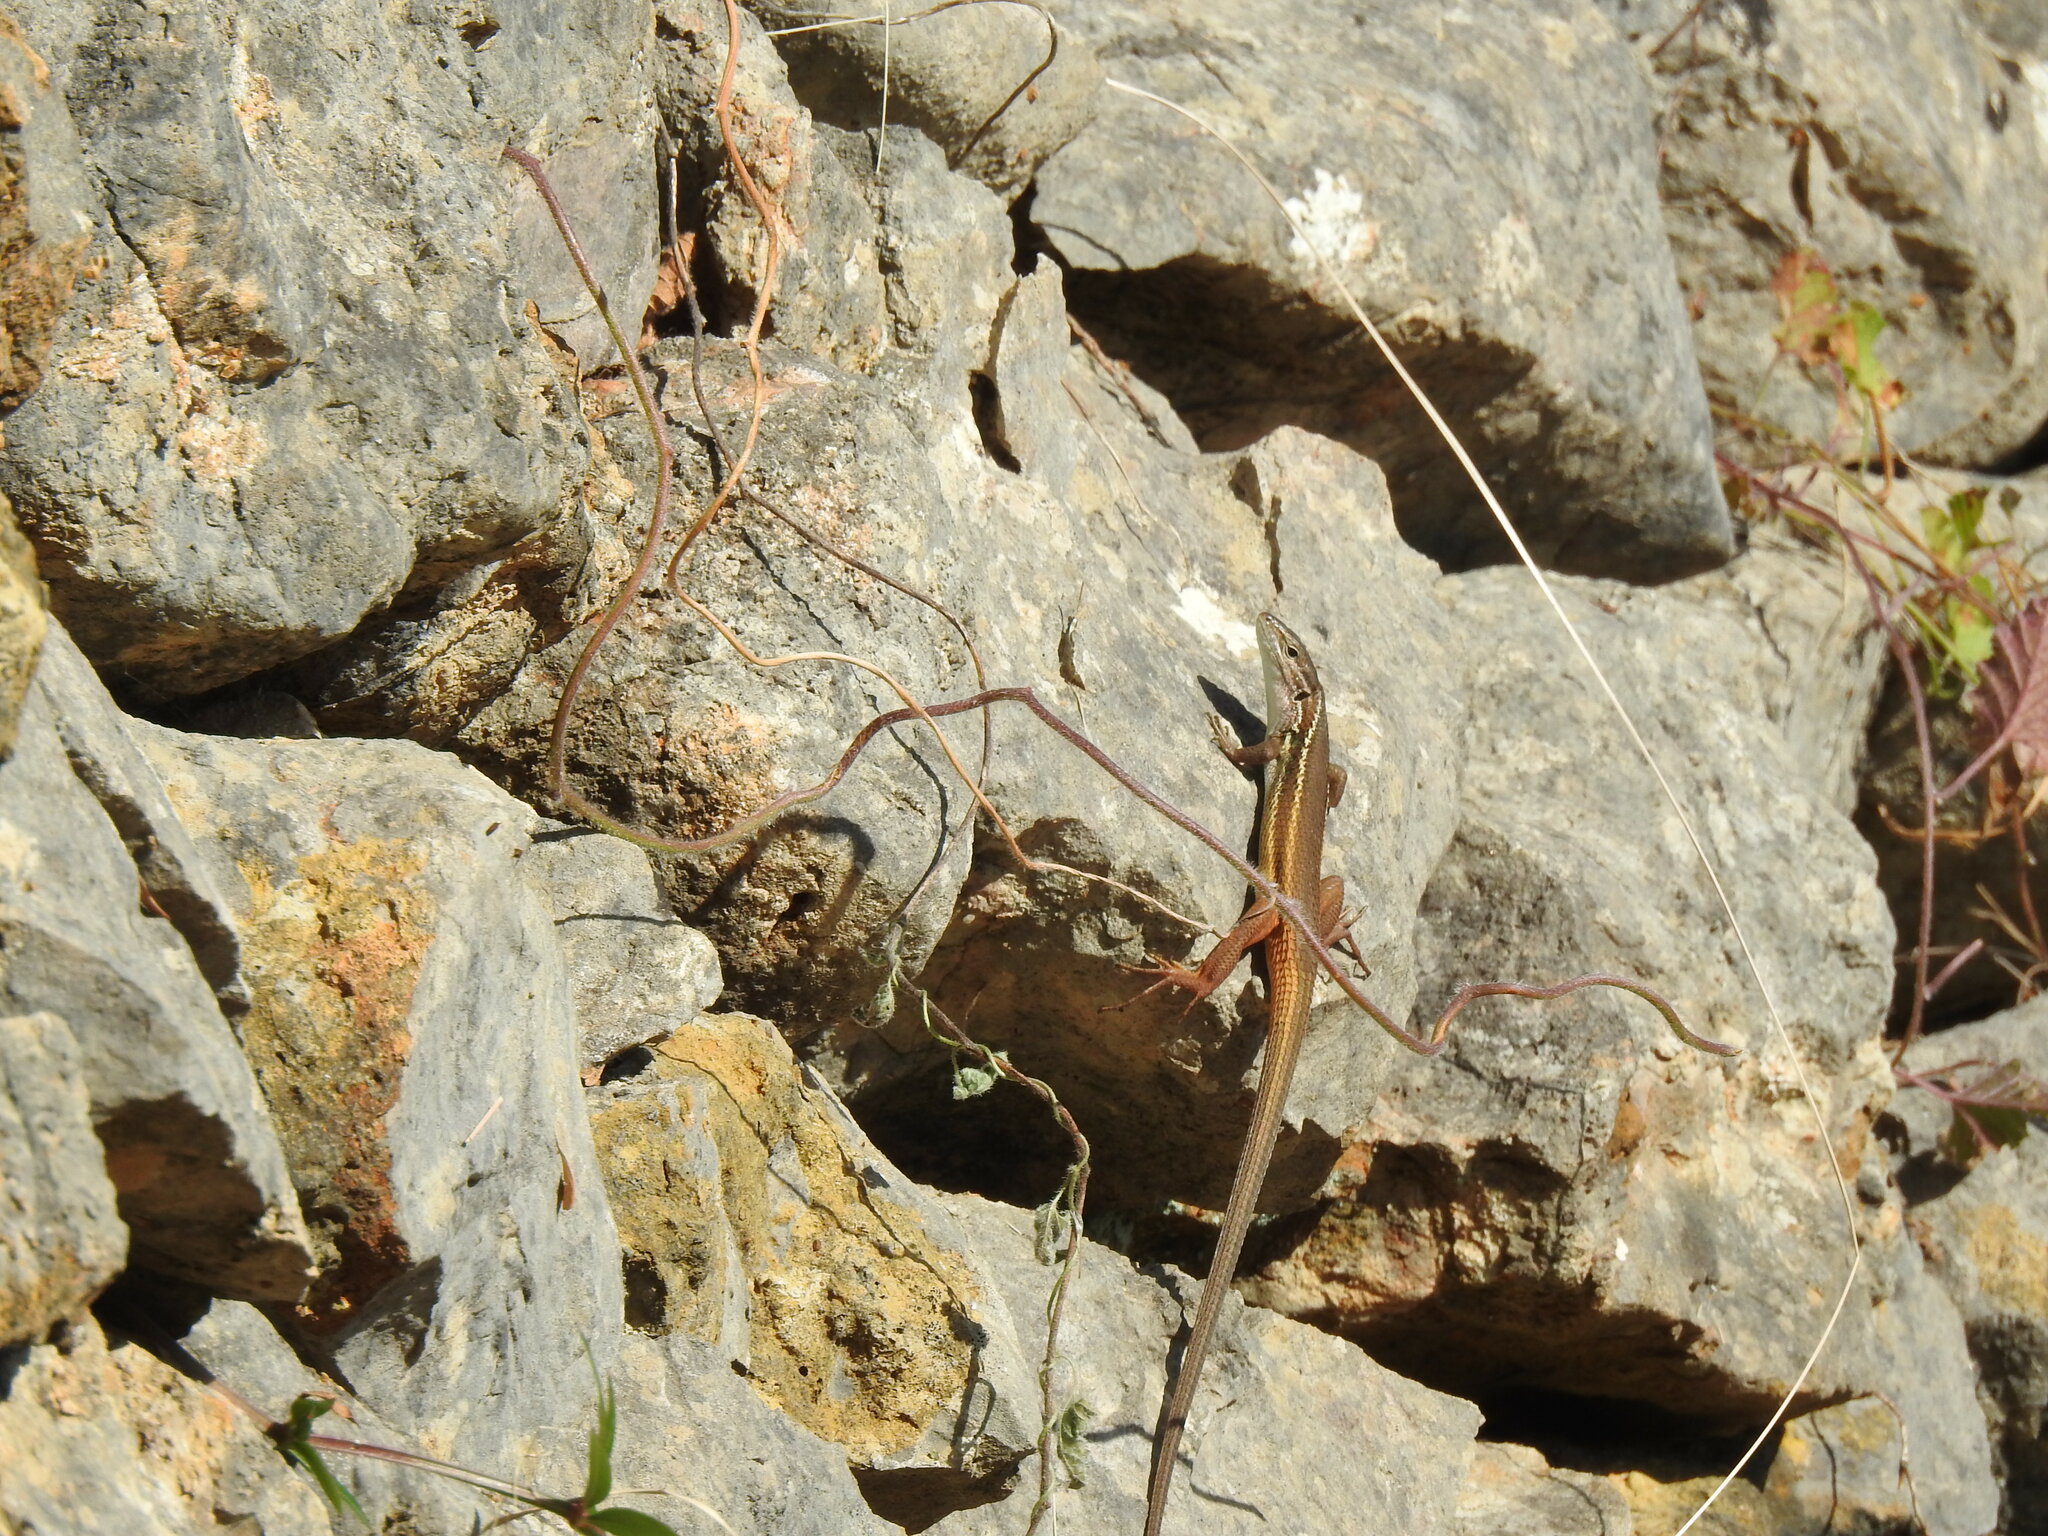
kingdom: Animalia
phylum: Chordata
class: Squamata
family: Lacertidae
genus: Psammodromus
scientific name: Psammodromus algirus
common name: Algerian psammodromus
